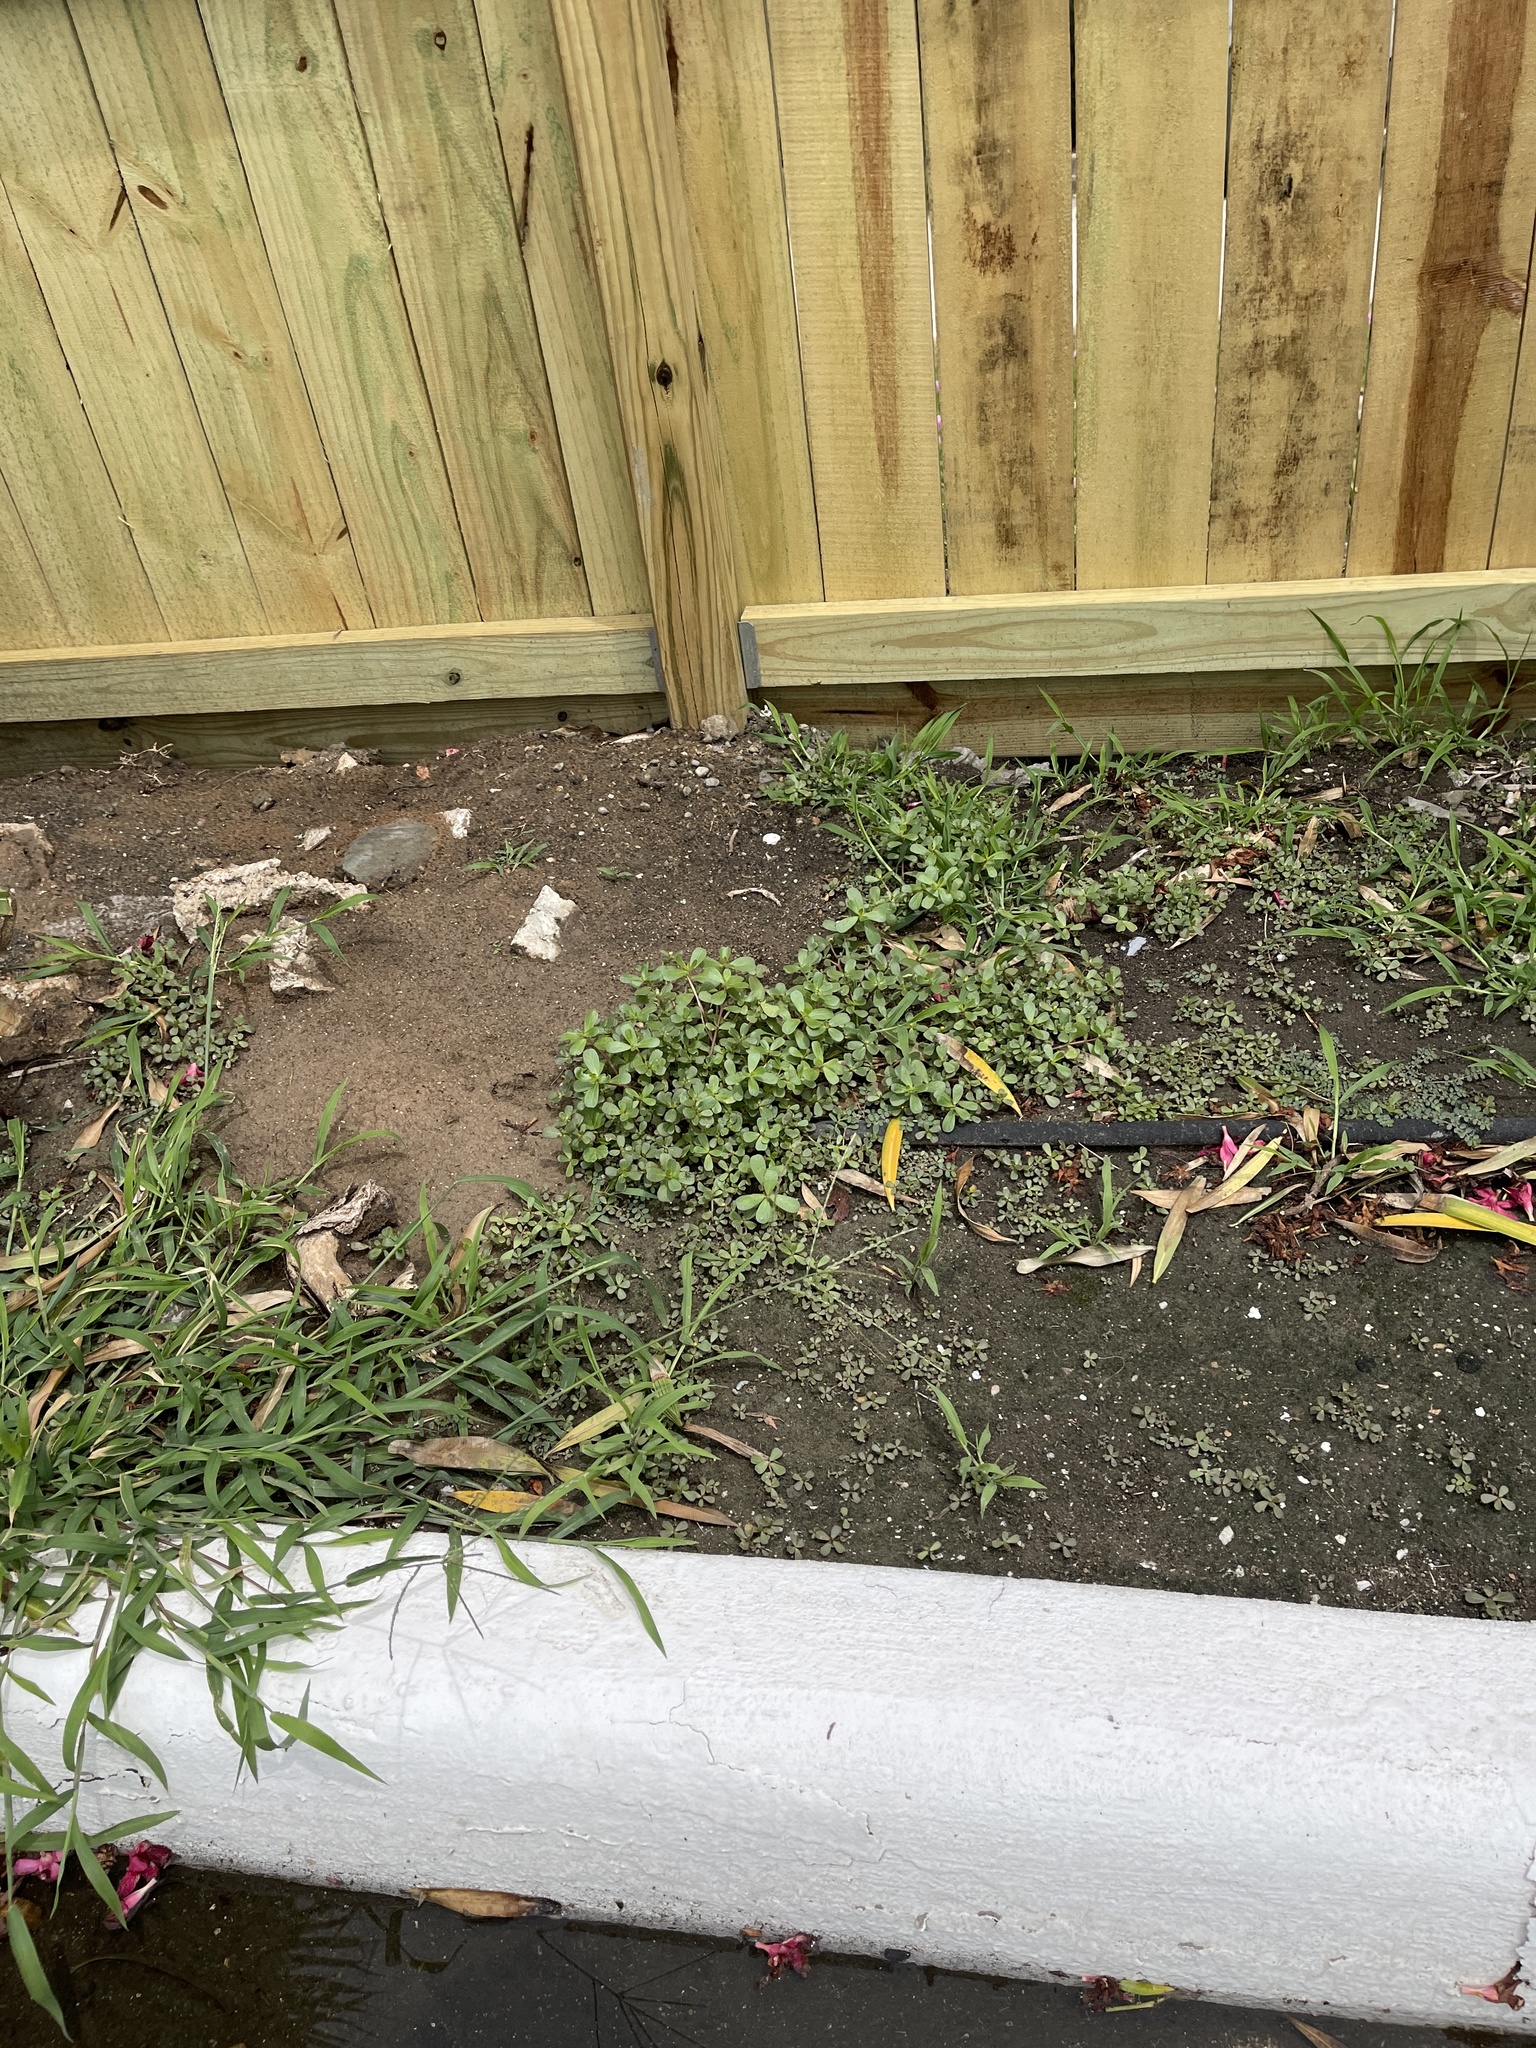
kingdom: Plantae
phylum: Tracheophyta
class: Magnoliopsida
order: Caryophyllales
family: Portulacaceae
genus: Portulaca
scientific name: Portulaca oleracea
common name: Common purslane
